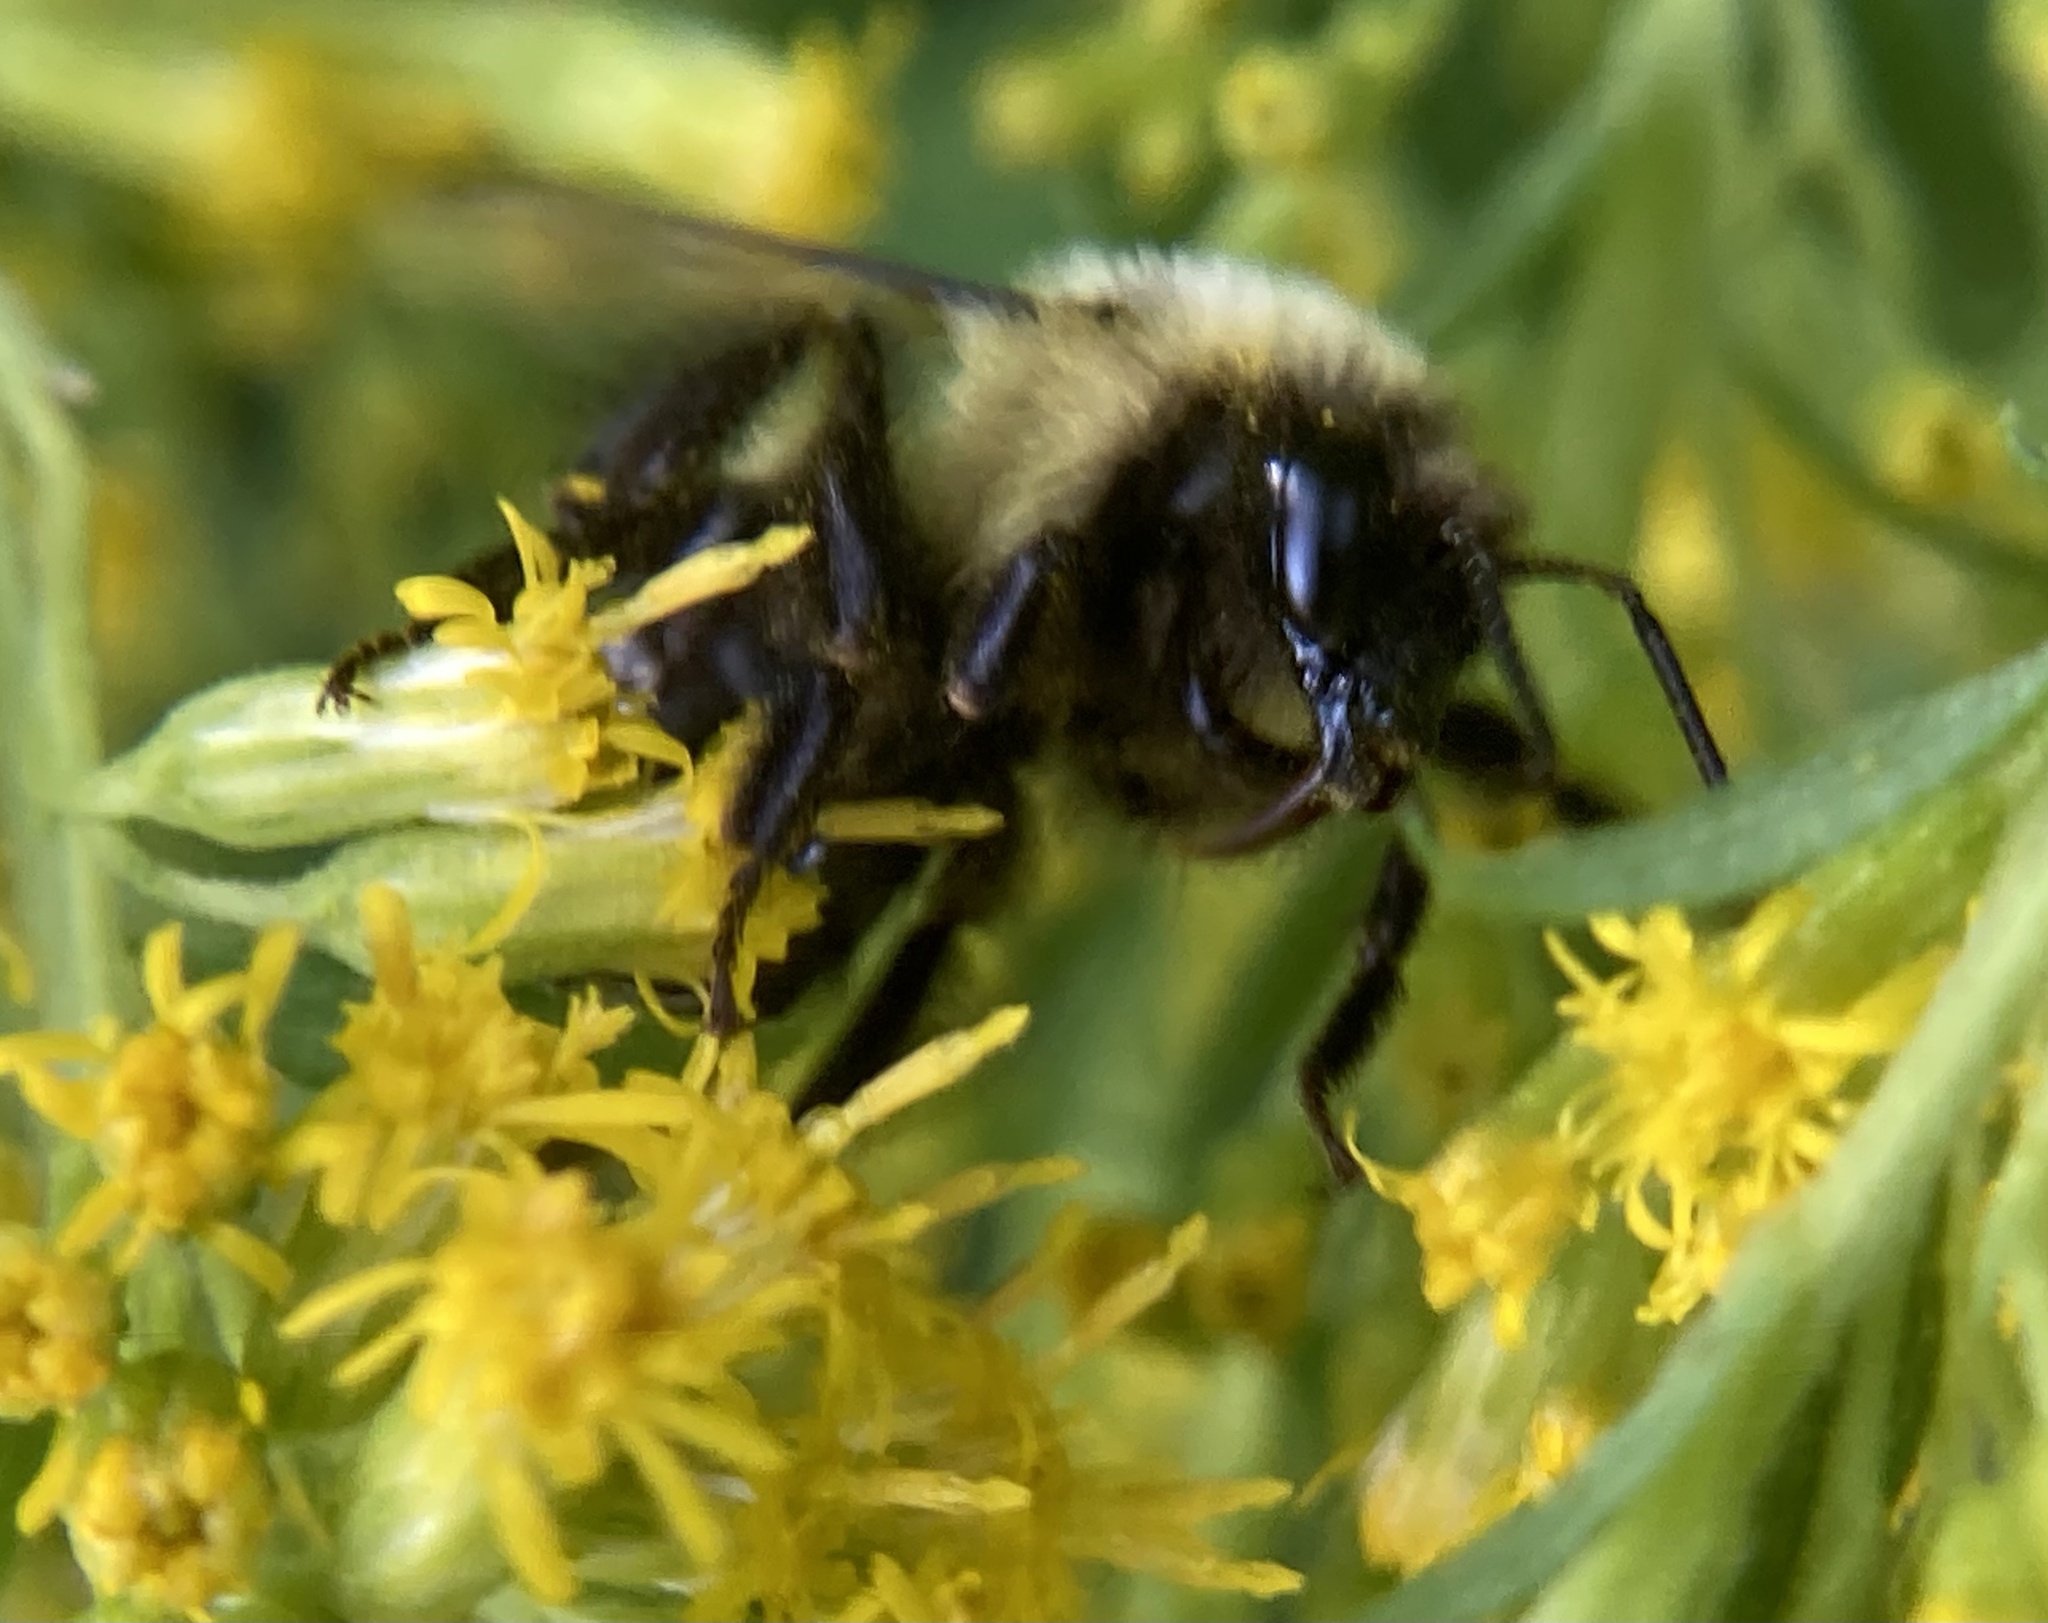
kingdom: Animalia
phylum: Arthropoda
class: Insecta
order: Hymenoptera
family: Apidae
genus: Bombus
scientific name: Bombus impatiens
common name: Common eastern bumble bee
